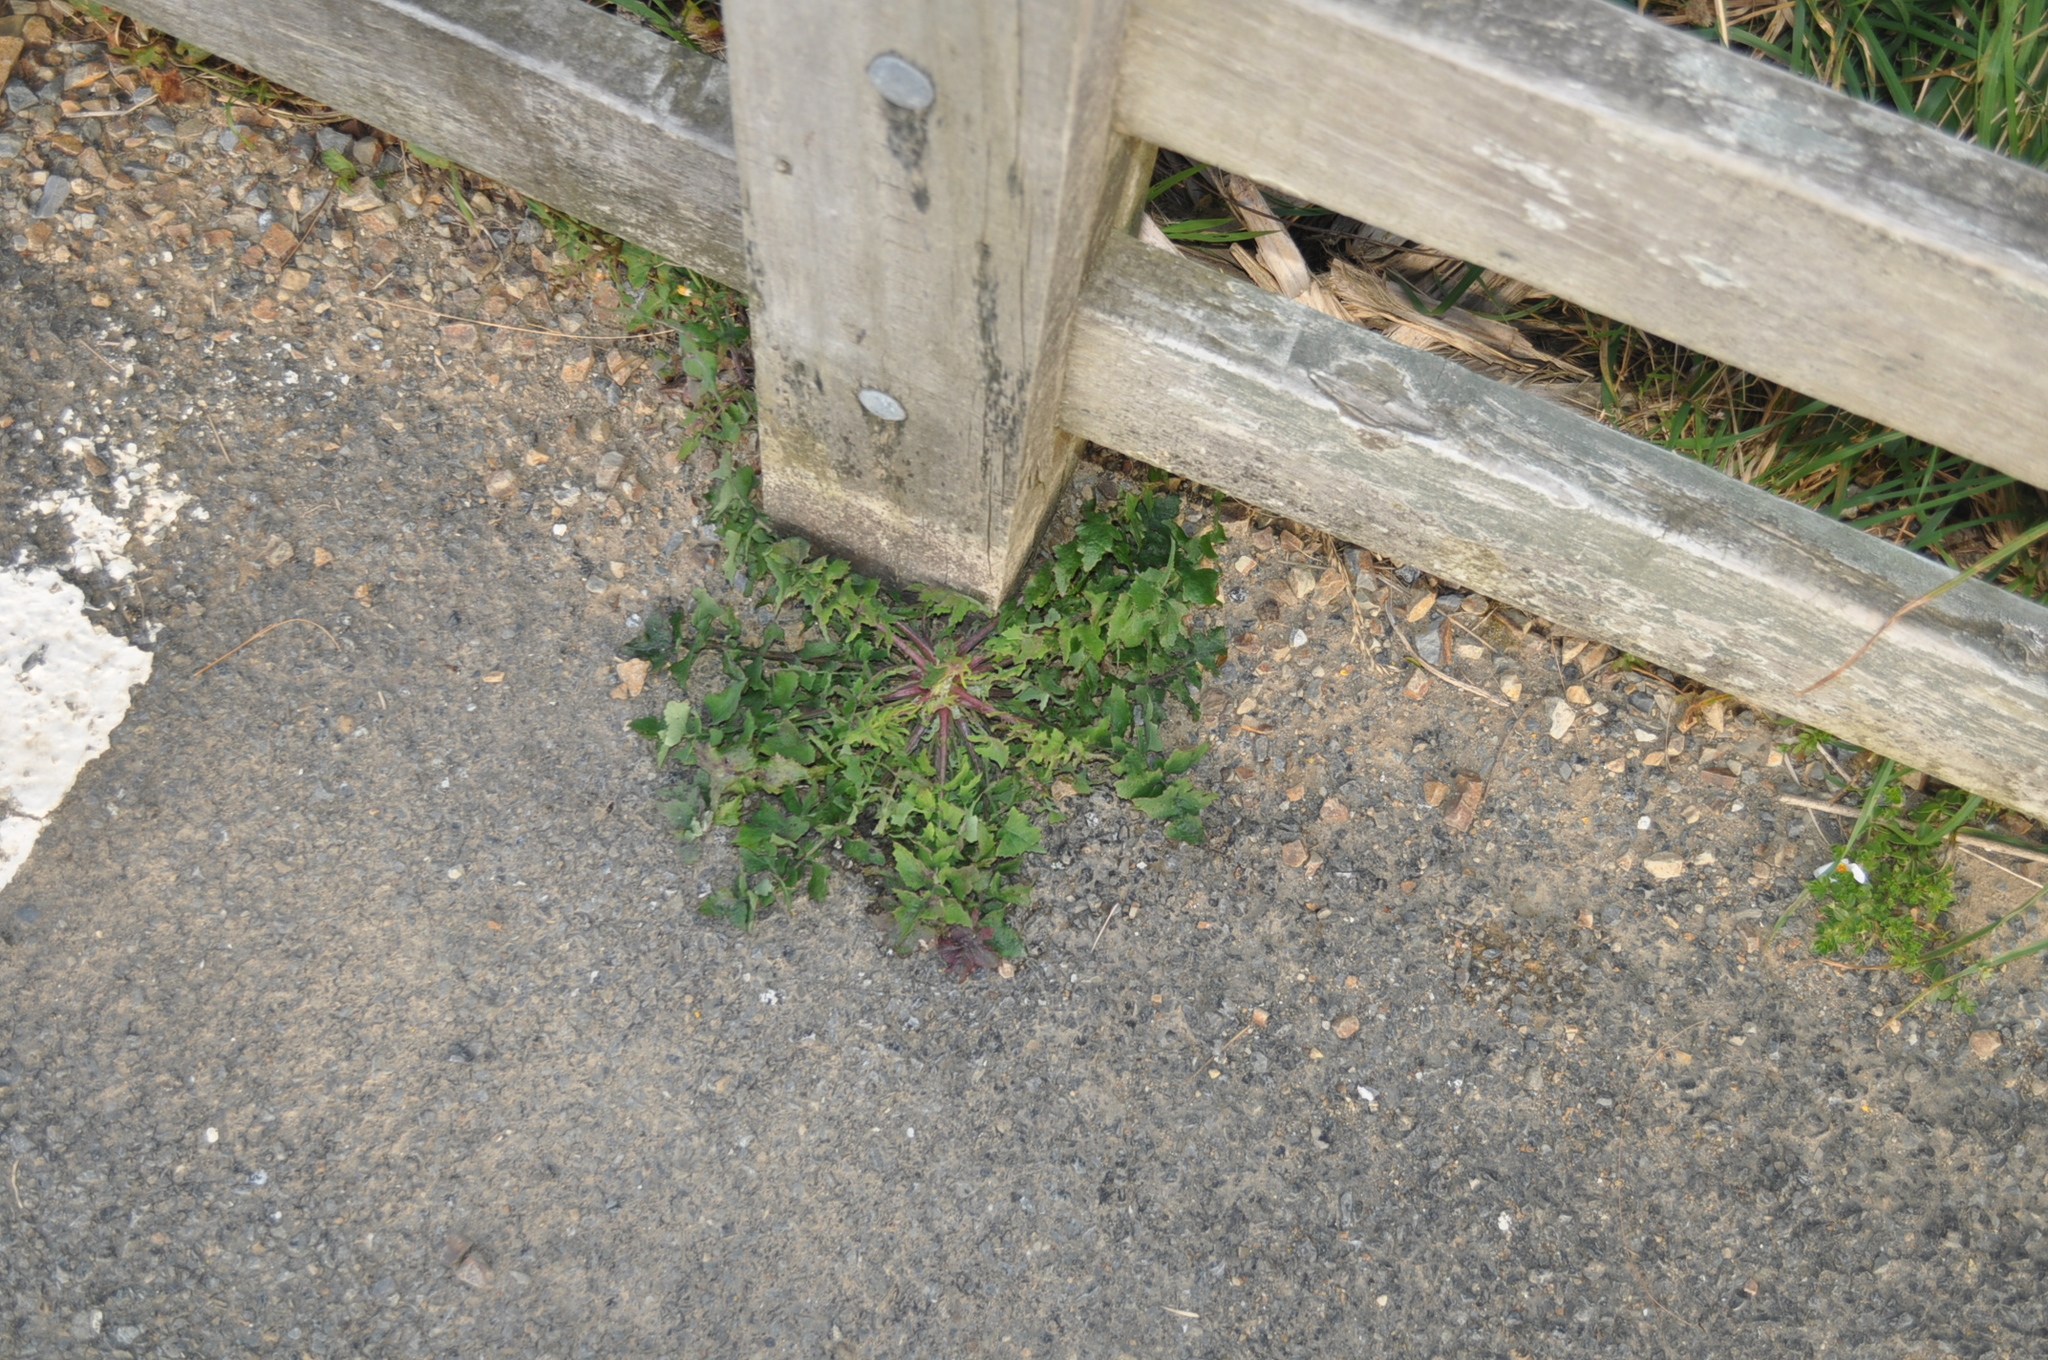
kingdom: Plantae
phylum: Tracheophyta
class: Magnoliopsida
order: Asterales
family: Asteraceae
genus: Sonchus
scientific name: Sonchus oleraceus
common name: Common sowthistle
